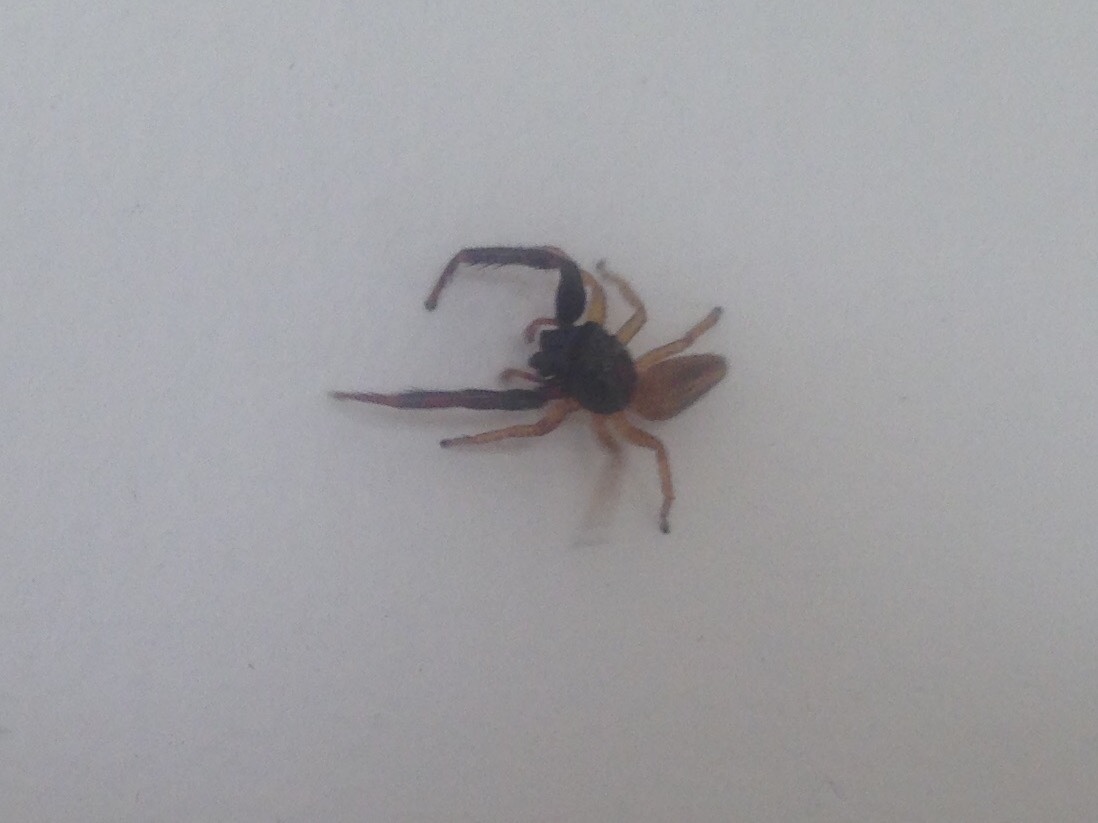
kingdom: Animalia
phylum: Arthropoda
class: Arachnida
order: Araneae
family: Salticidae
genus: Trite
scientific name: Trite planiceps
